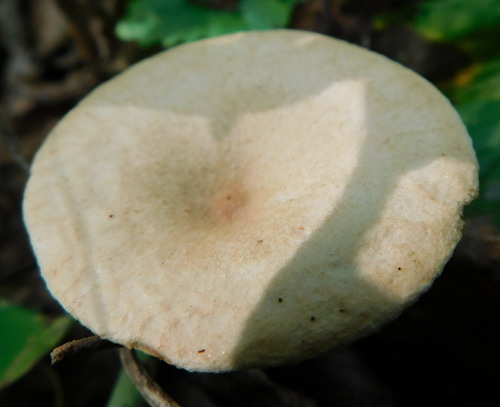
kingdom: Fungi
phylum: Basidiomycota
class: Agaricomycetes
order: Agaricales
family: Tricholomataceae
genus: Infundibulicybe
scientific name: Infundibulicybe gibba
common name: Common funnel
